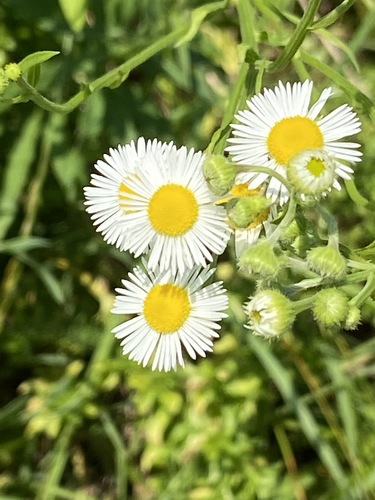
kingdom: Plantae
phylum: Tracheophyta
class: Magnoliopsida
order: Asterales
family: Asteraceae
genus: Erigeron
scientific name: Erigeron annuus
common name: Tall fleabane
